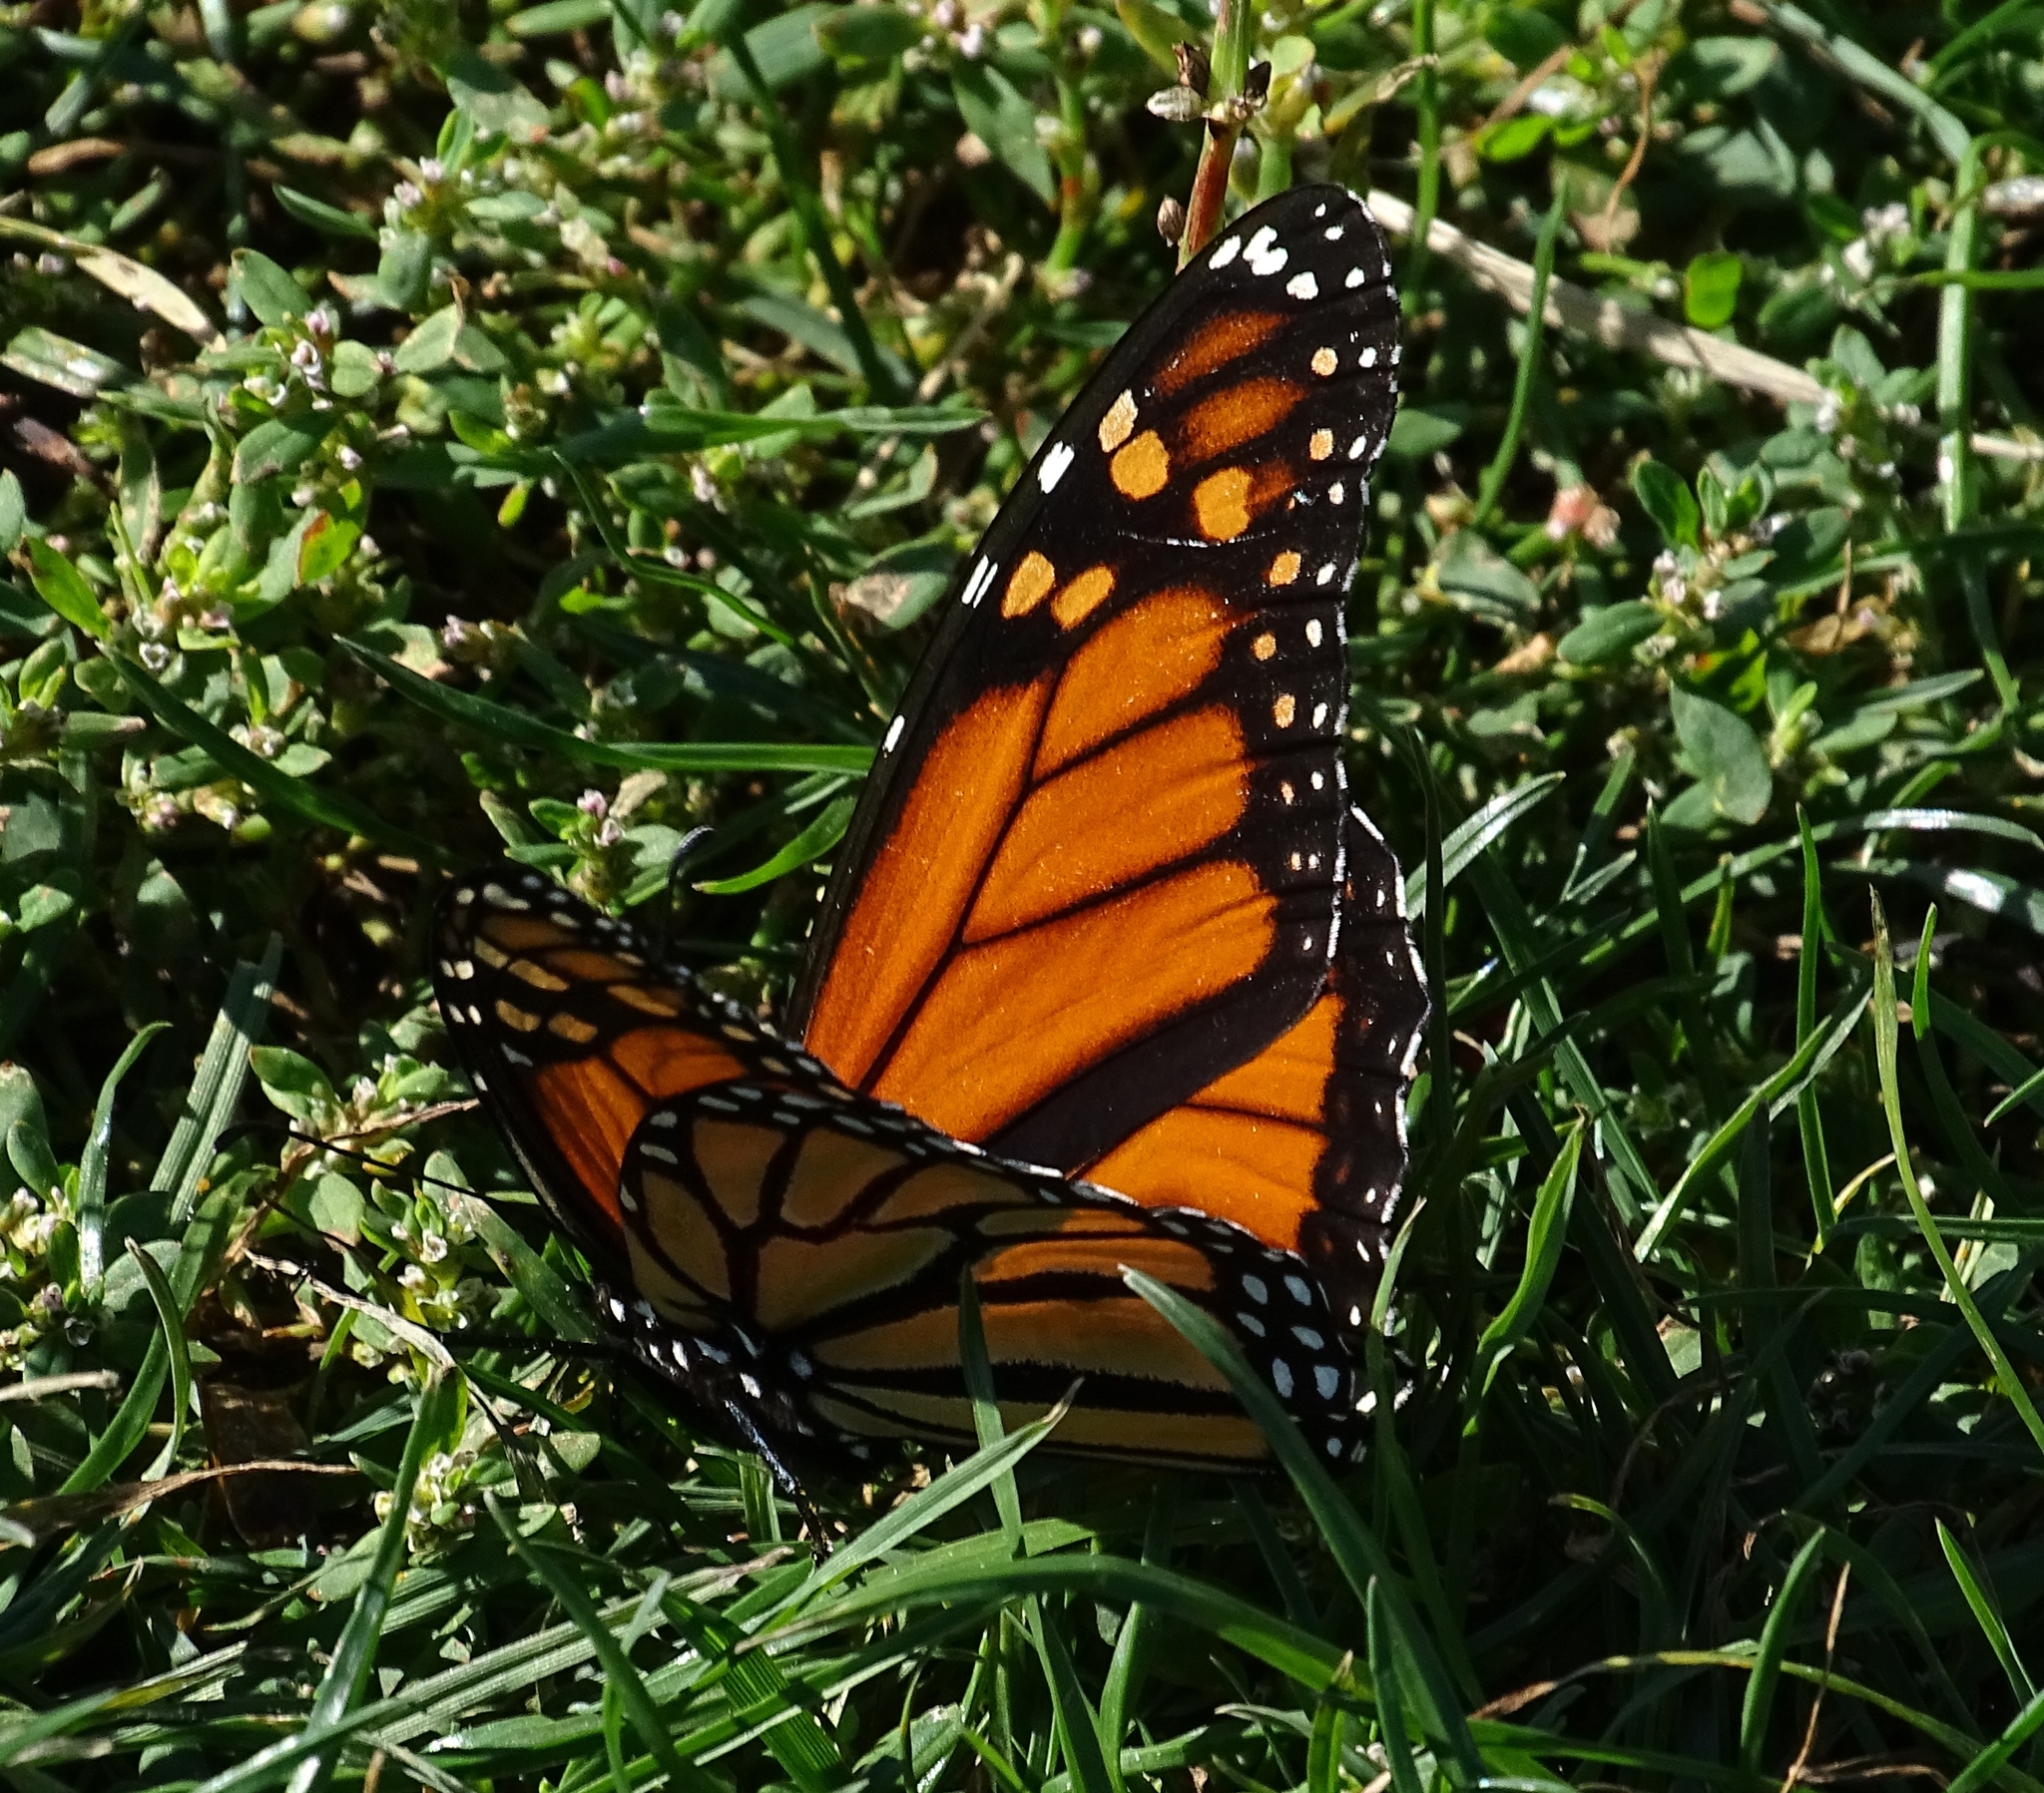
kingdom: Animalia
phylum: Arthropoda
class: Insecta
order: Lepidoptera
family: Nymphalidae
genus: Danaus
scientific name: Danaus plexippus
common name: Monarch
